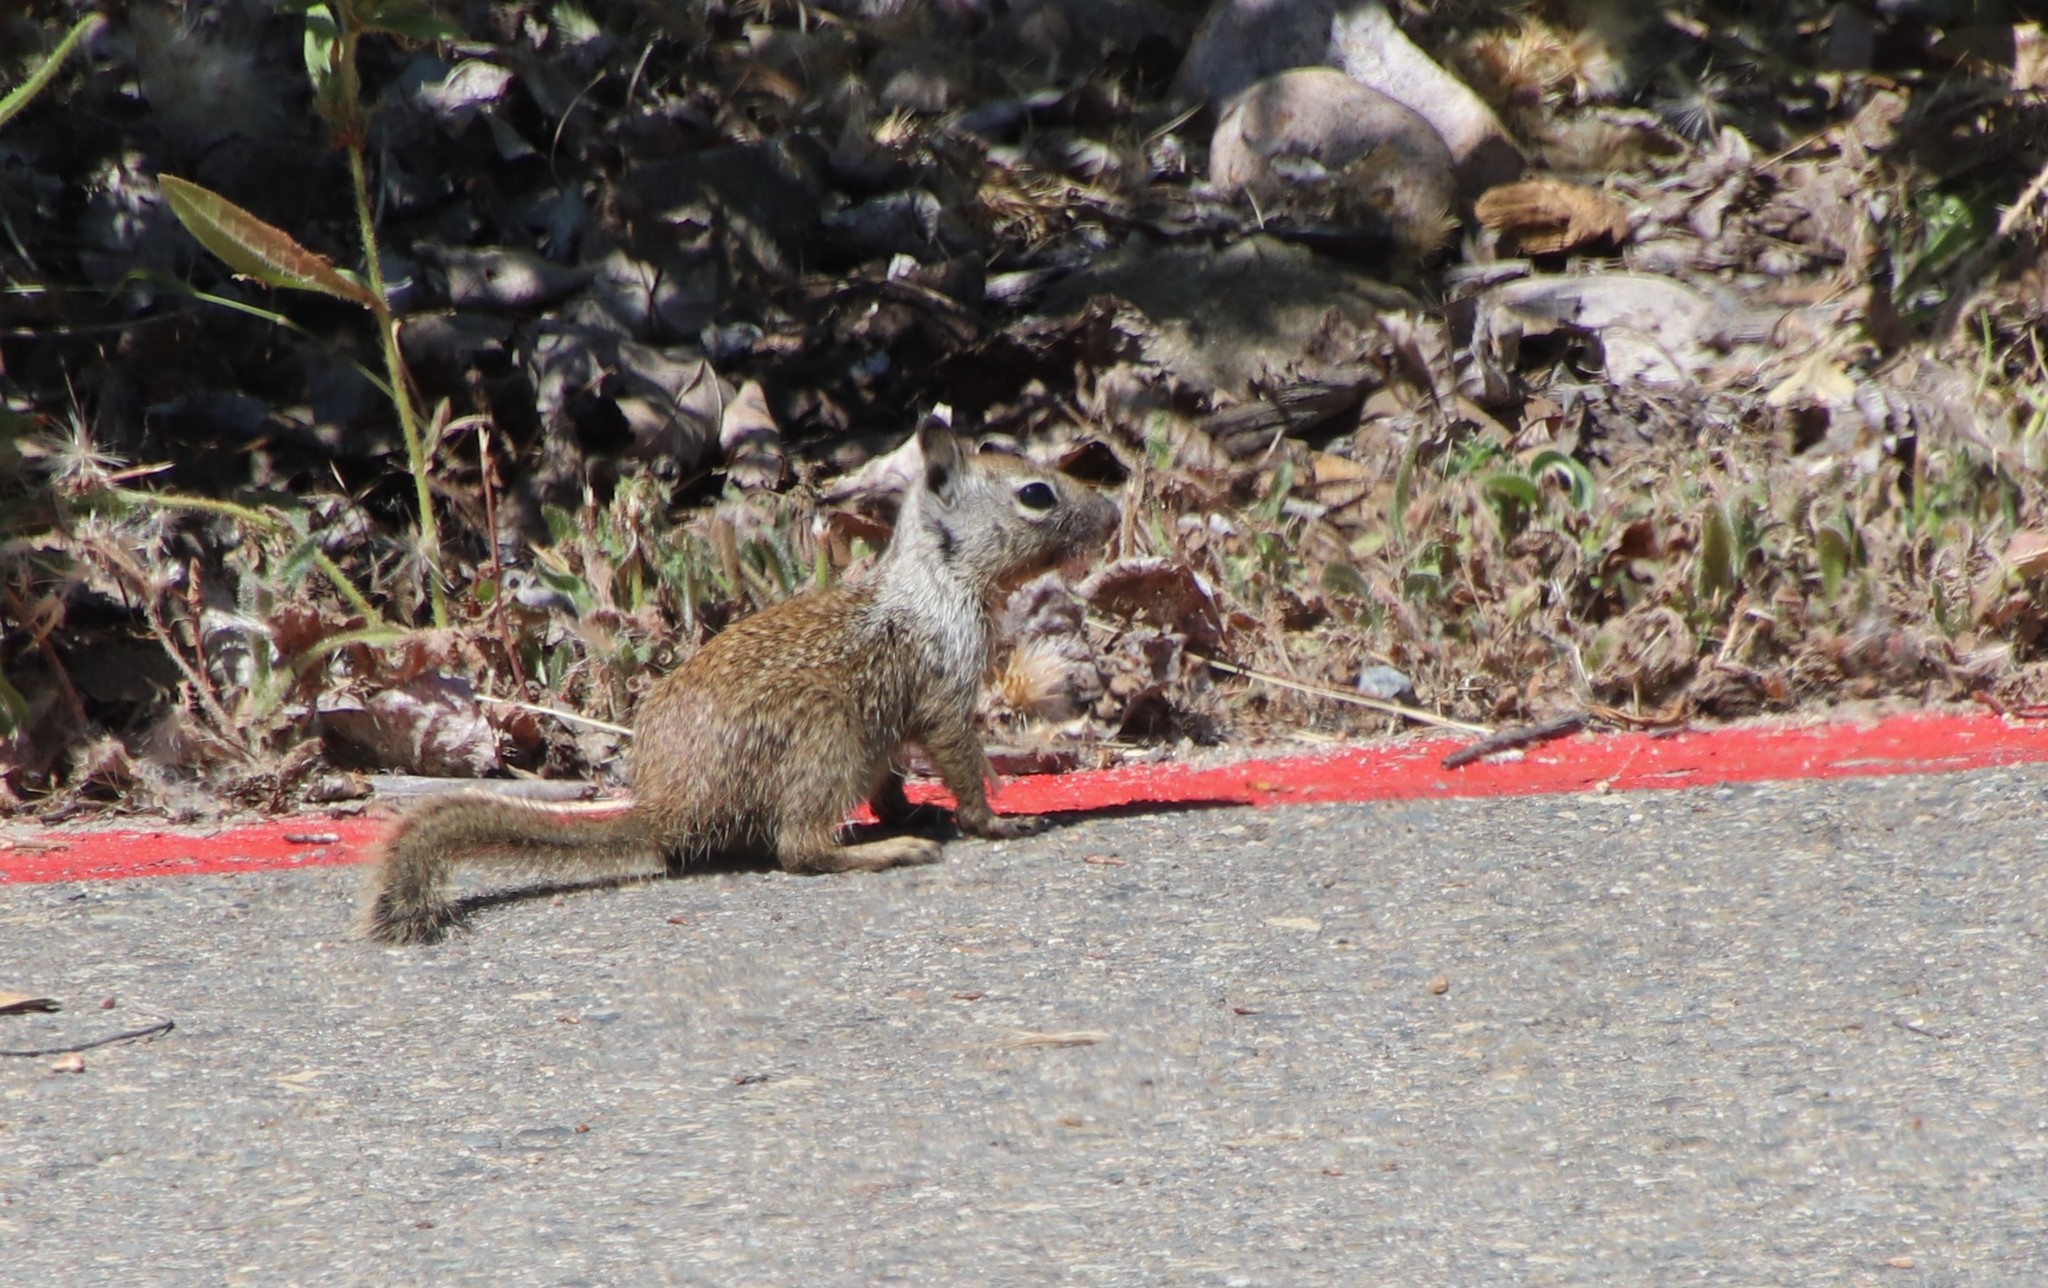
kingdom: Animalia
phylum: Chordata
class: Mammalia
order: Rodentia
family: Sciuridae
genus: Otospermophilus
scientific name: Otospermophilus beecheyi
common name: California ground squirrel
